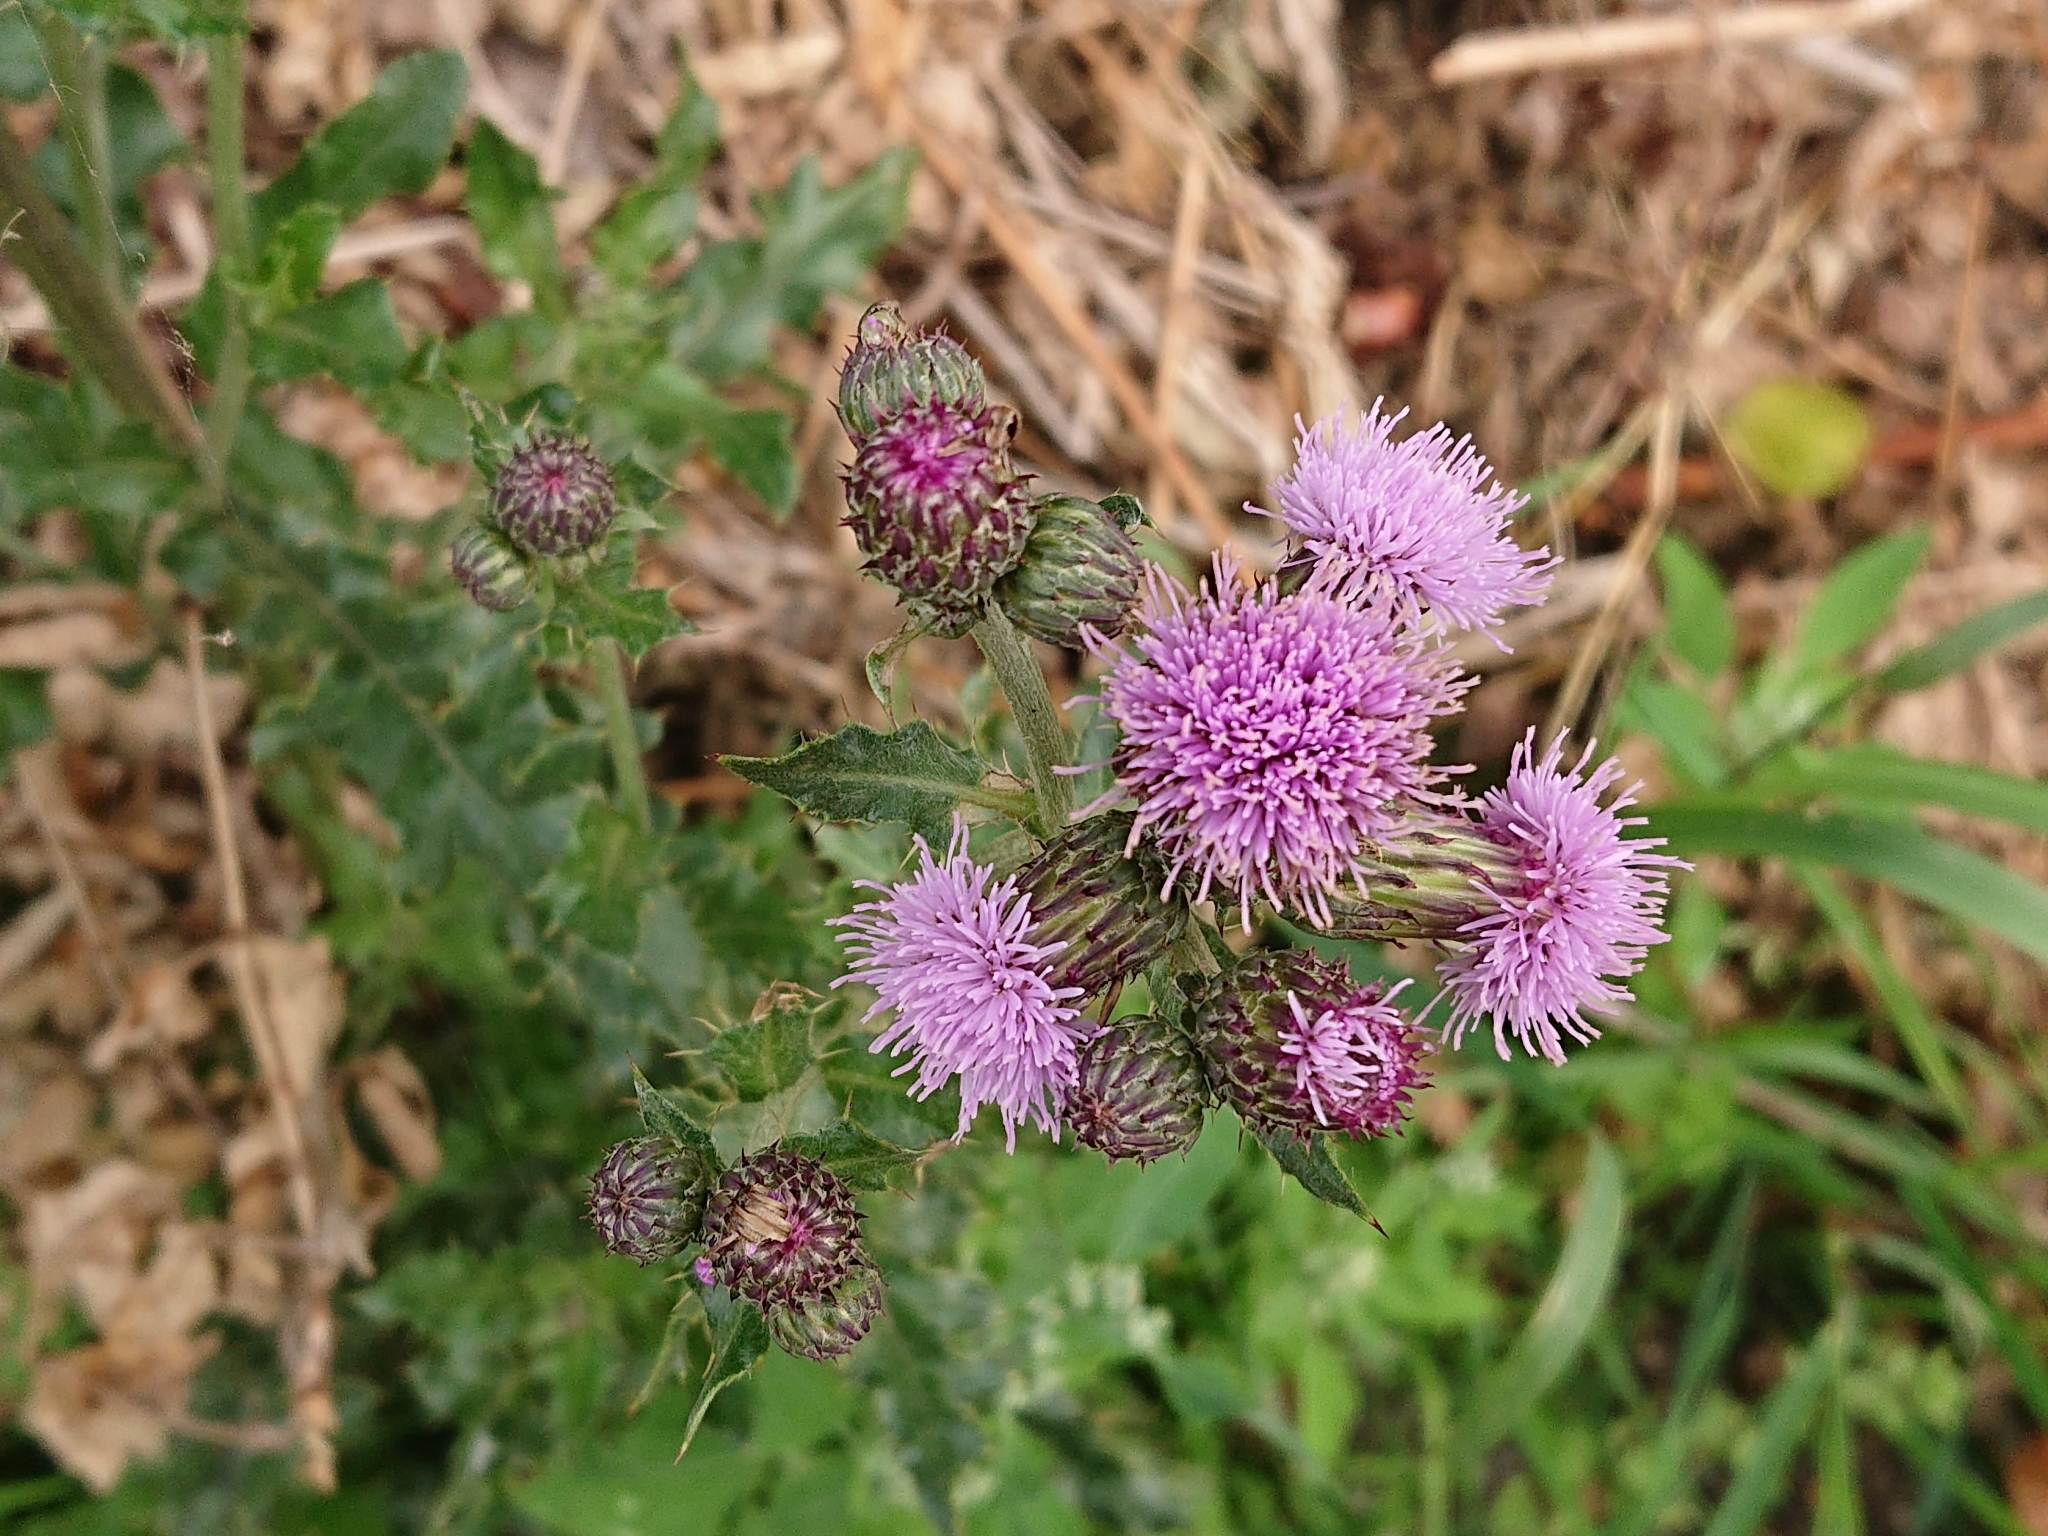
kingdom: Plantae
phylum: Tracheophyta
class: Magnoliopsida
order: Asterales
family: Asteraceae
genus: Cirsium
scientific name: Cirsium arvense
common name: Creeping thistle
